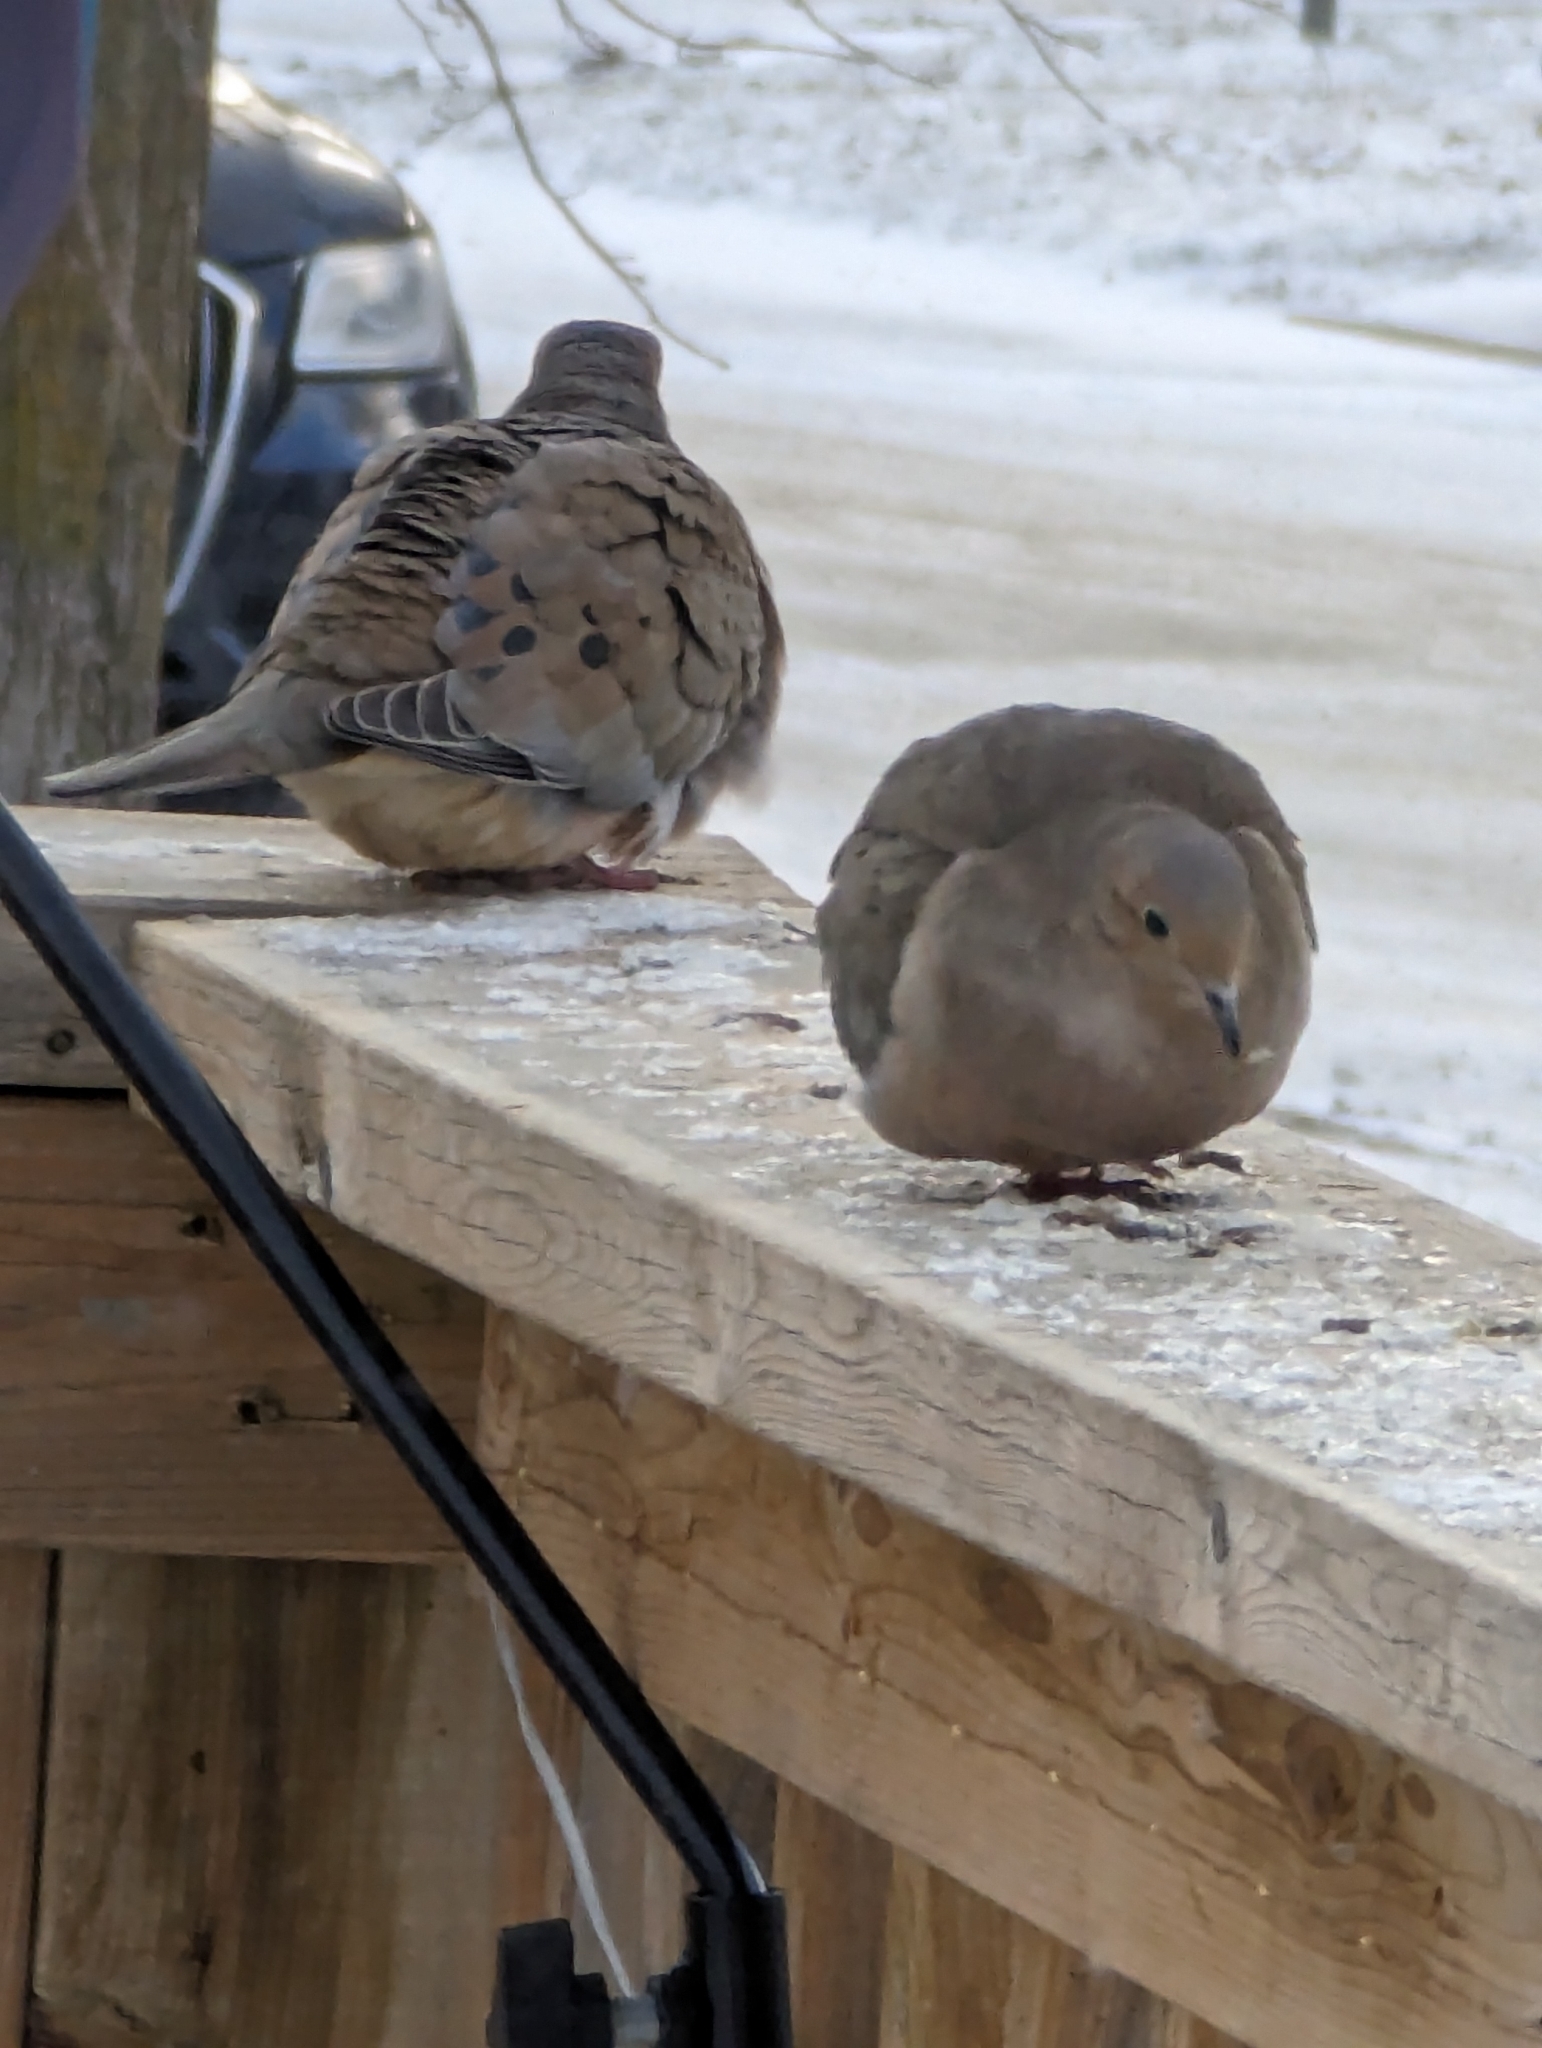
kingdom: Animalia
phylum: Chordata
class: Aves
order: Columbiformes
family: Columbidae
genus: Zenaida
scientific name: Zenaida macroura
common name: Mourning dove
